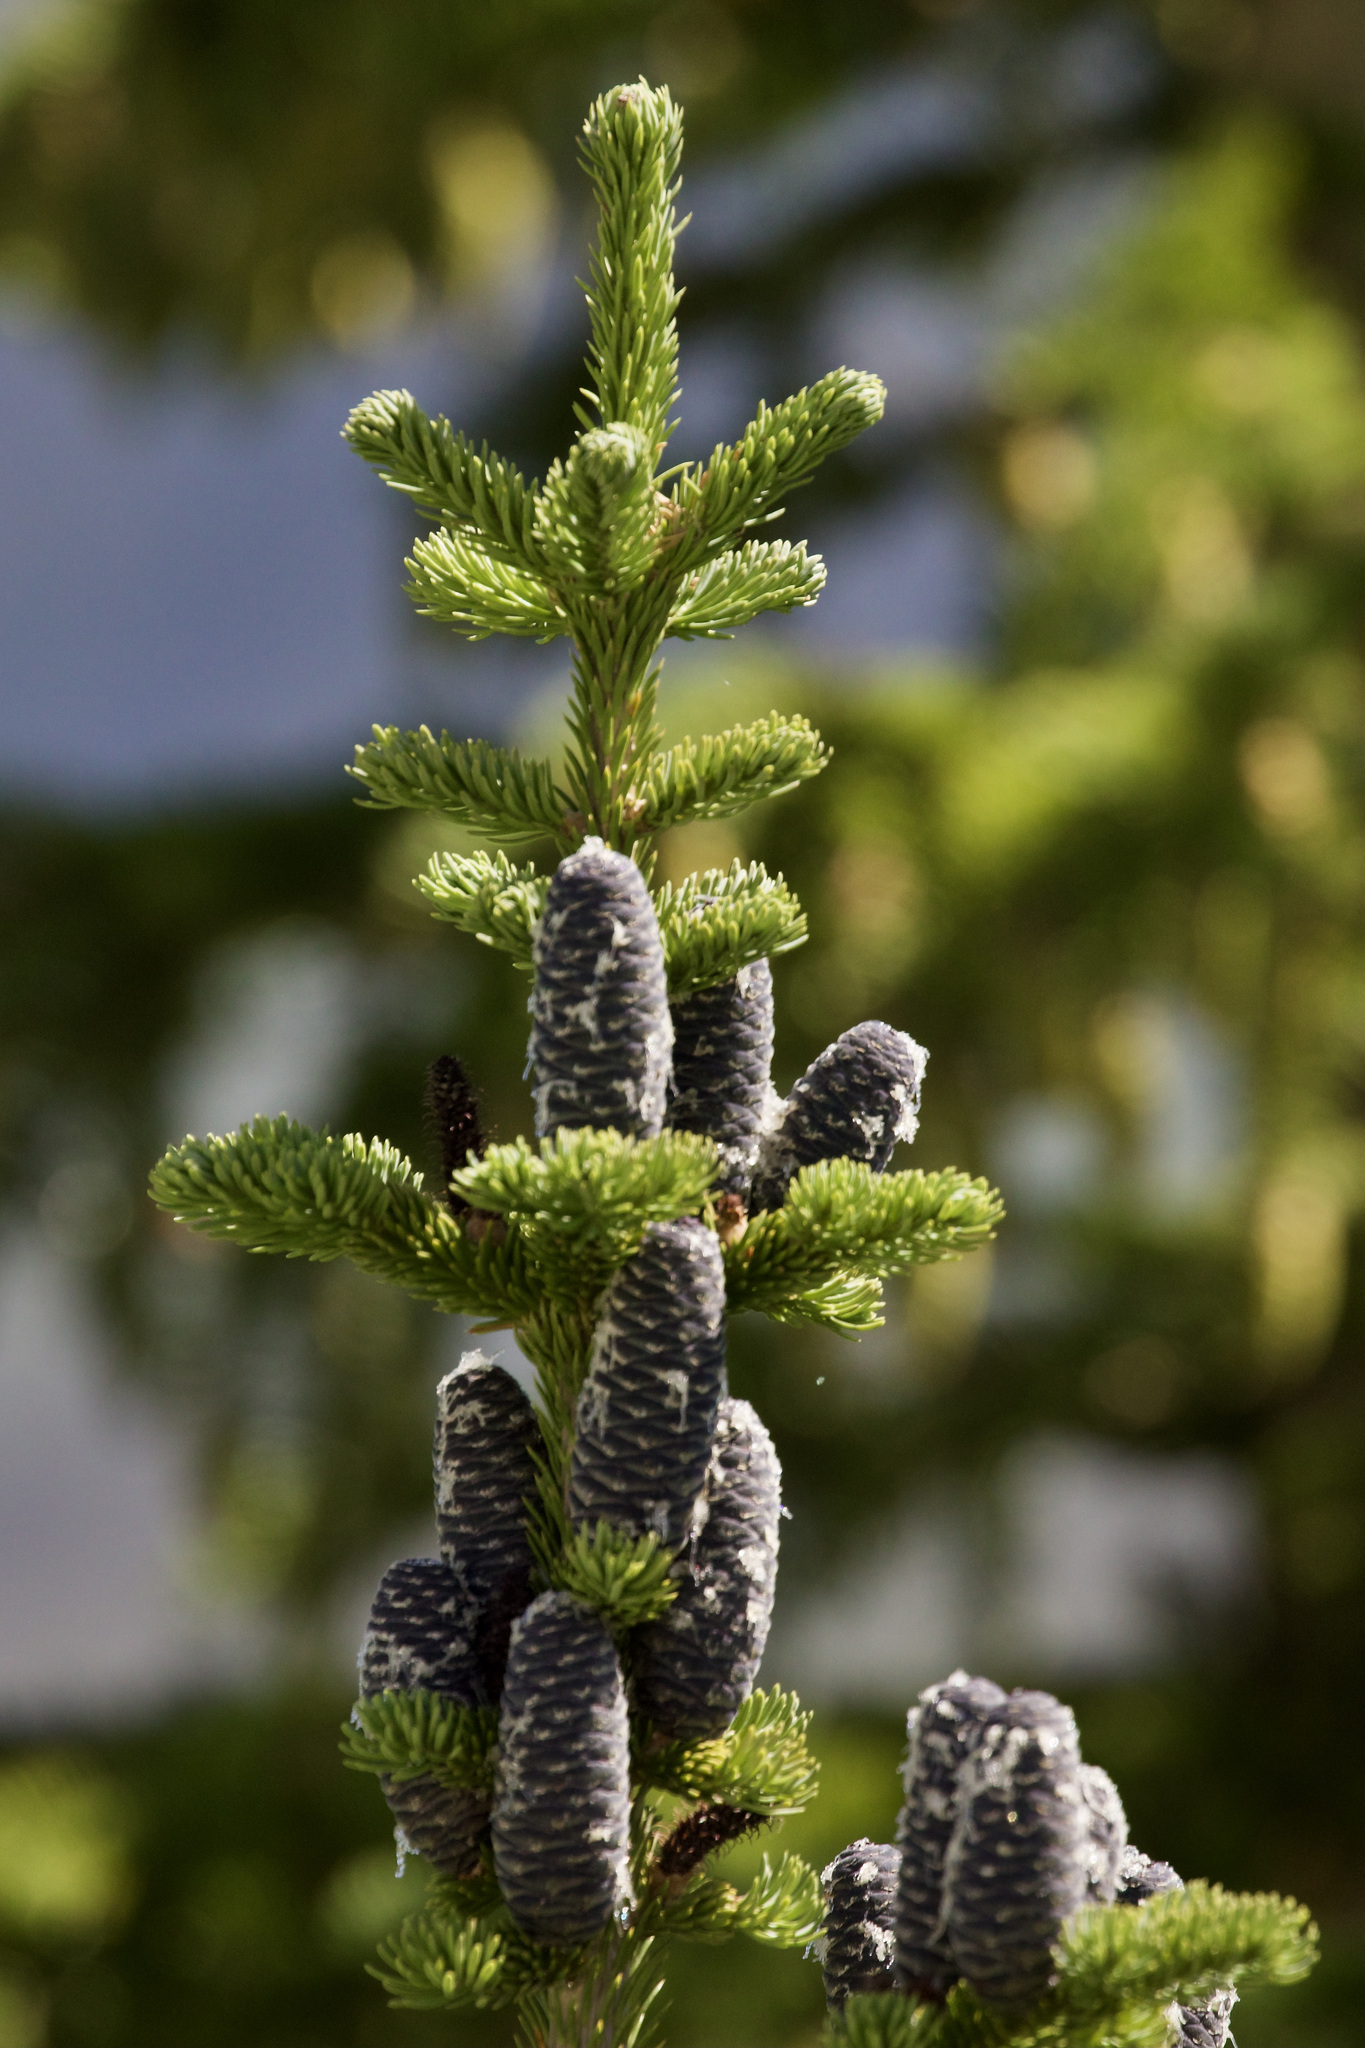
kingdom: Plantae
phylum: Tracheophyta
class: Pinopsida
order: Pinales
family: Pinaceae
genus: Abies
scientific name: Abies lasiocarpa
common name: Subalpine fir
